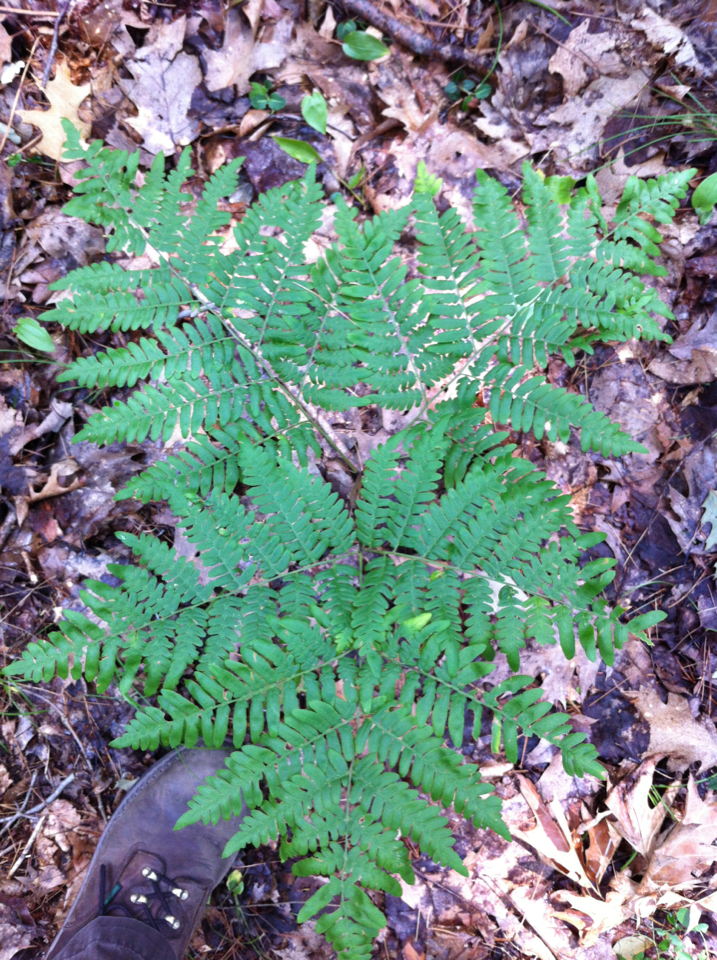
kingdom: Plantae
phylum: Tracheophyta
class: Polypodiopsida
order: Polypodiales
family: Dennstaedtiaceae
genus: Pteridium
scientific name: Pteridium aquilinum
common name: Bracken
